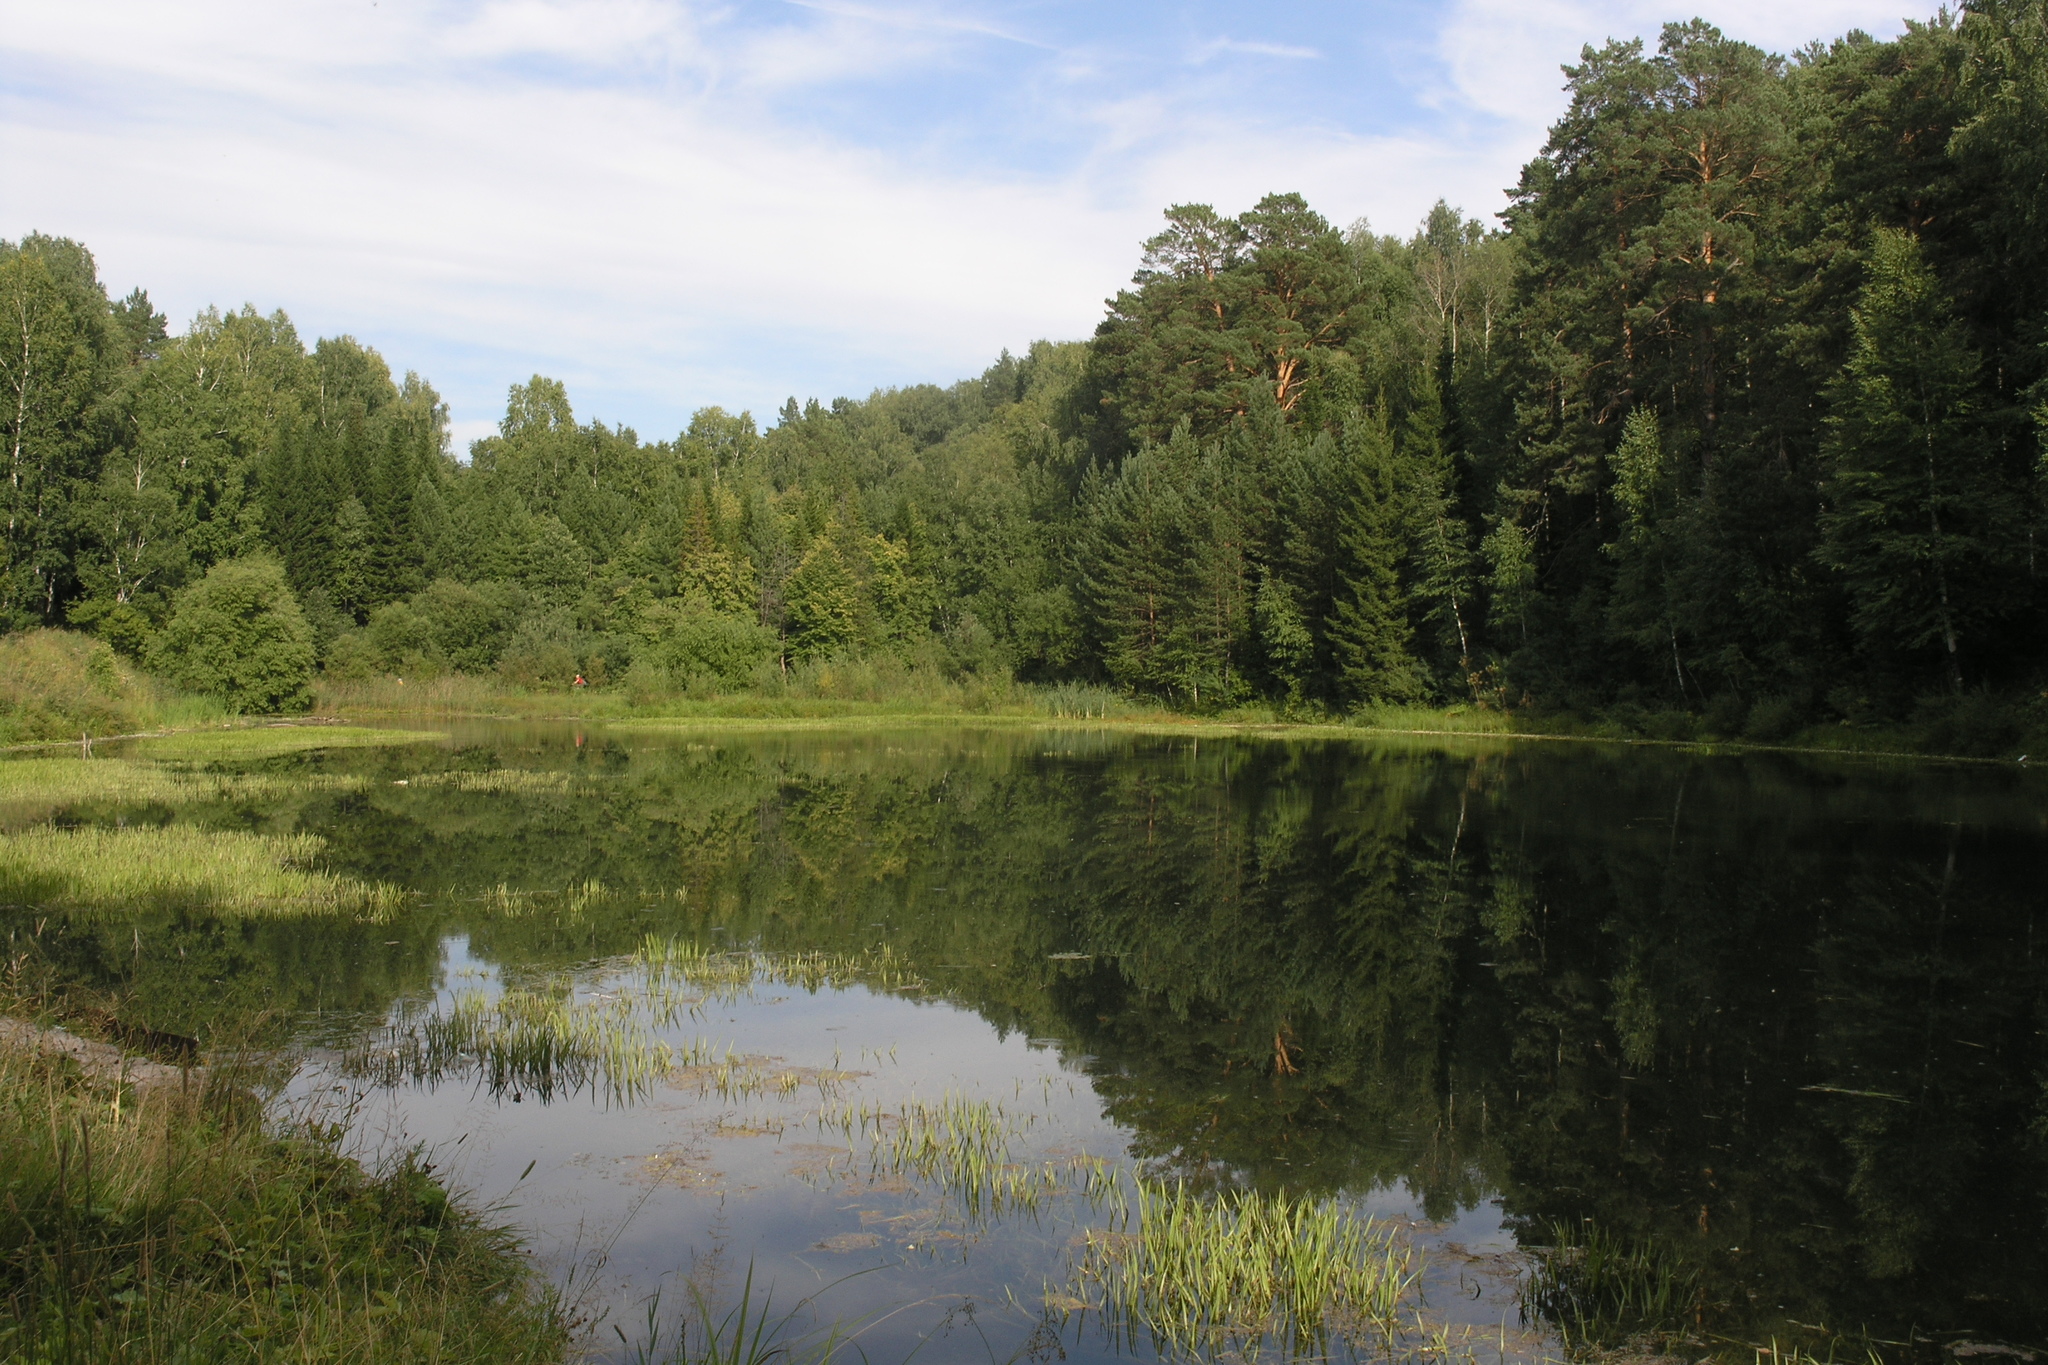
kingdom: Plantae
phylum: Tracheophyta
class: Liliopsida
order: Alismatales
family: Hydrocharitaceae
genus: Stratiotes
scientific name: Stratiotes aloides
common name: Water-soldier
